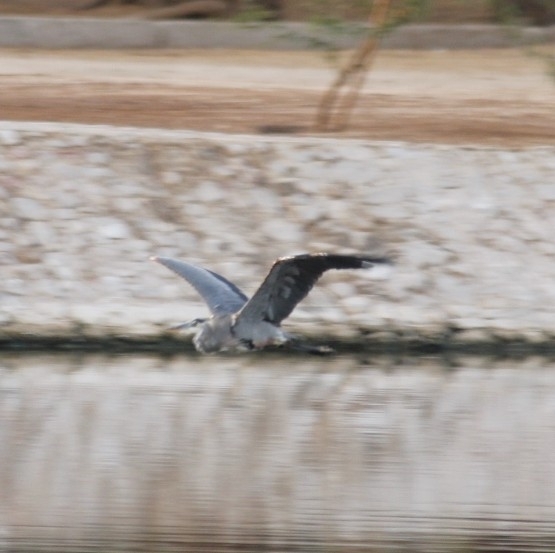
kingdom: Animalia
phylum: Chordata
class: Aves
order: Pelecaniformes
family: Ardeidae
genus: Ardea
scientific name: Ardea herodias
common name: Great blue heron
